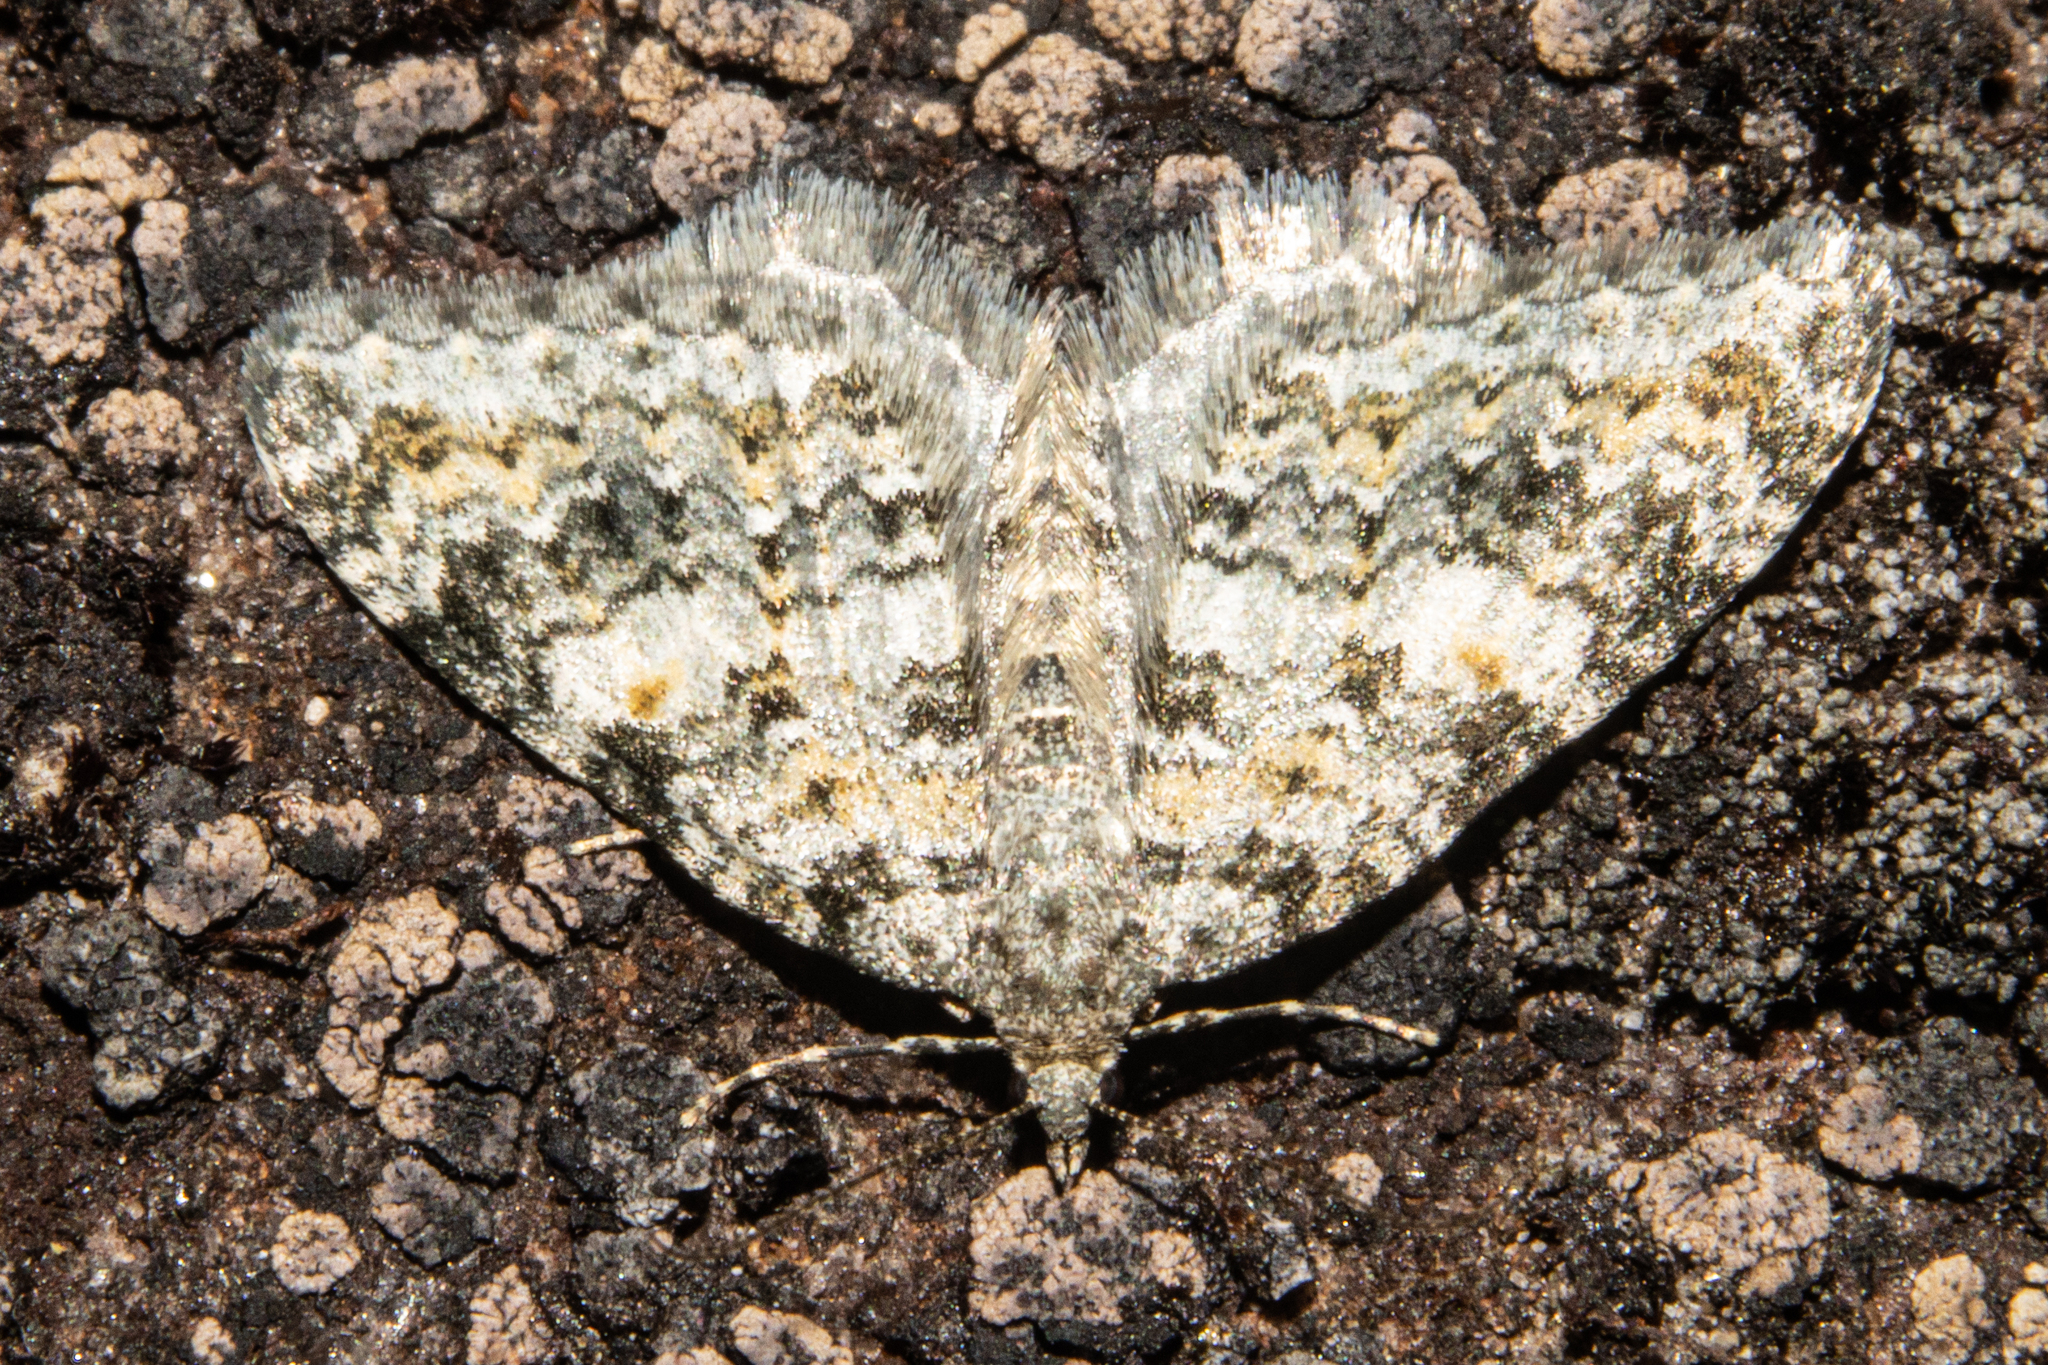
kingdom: Animalia
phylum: Arthropoda
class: Insecta
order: Lepidoptera
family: Geometridae
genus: Helastia
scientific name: Helastia plumbea
